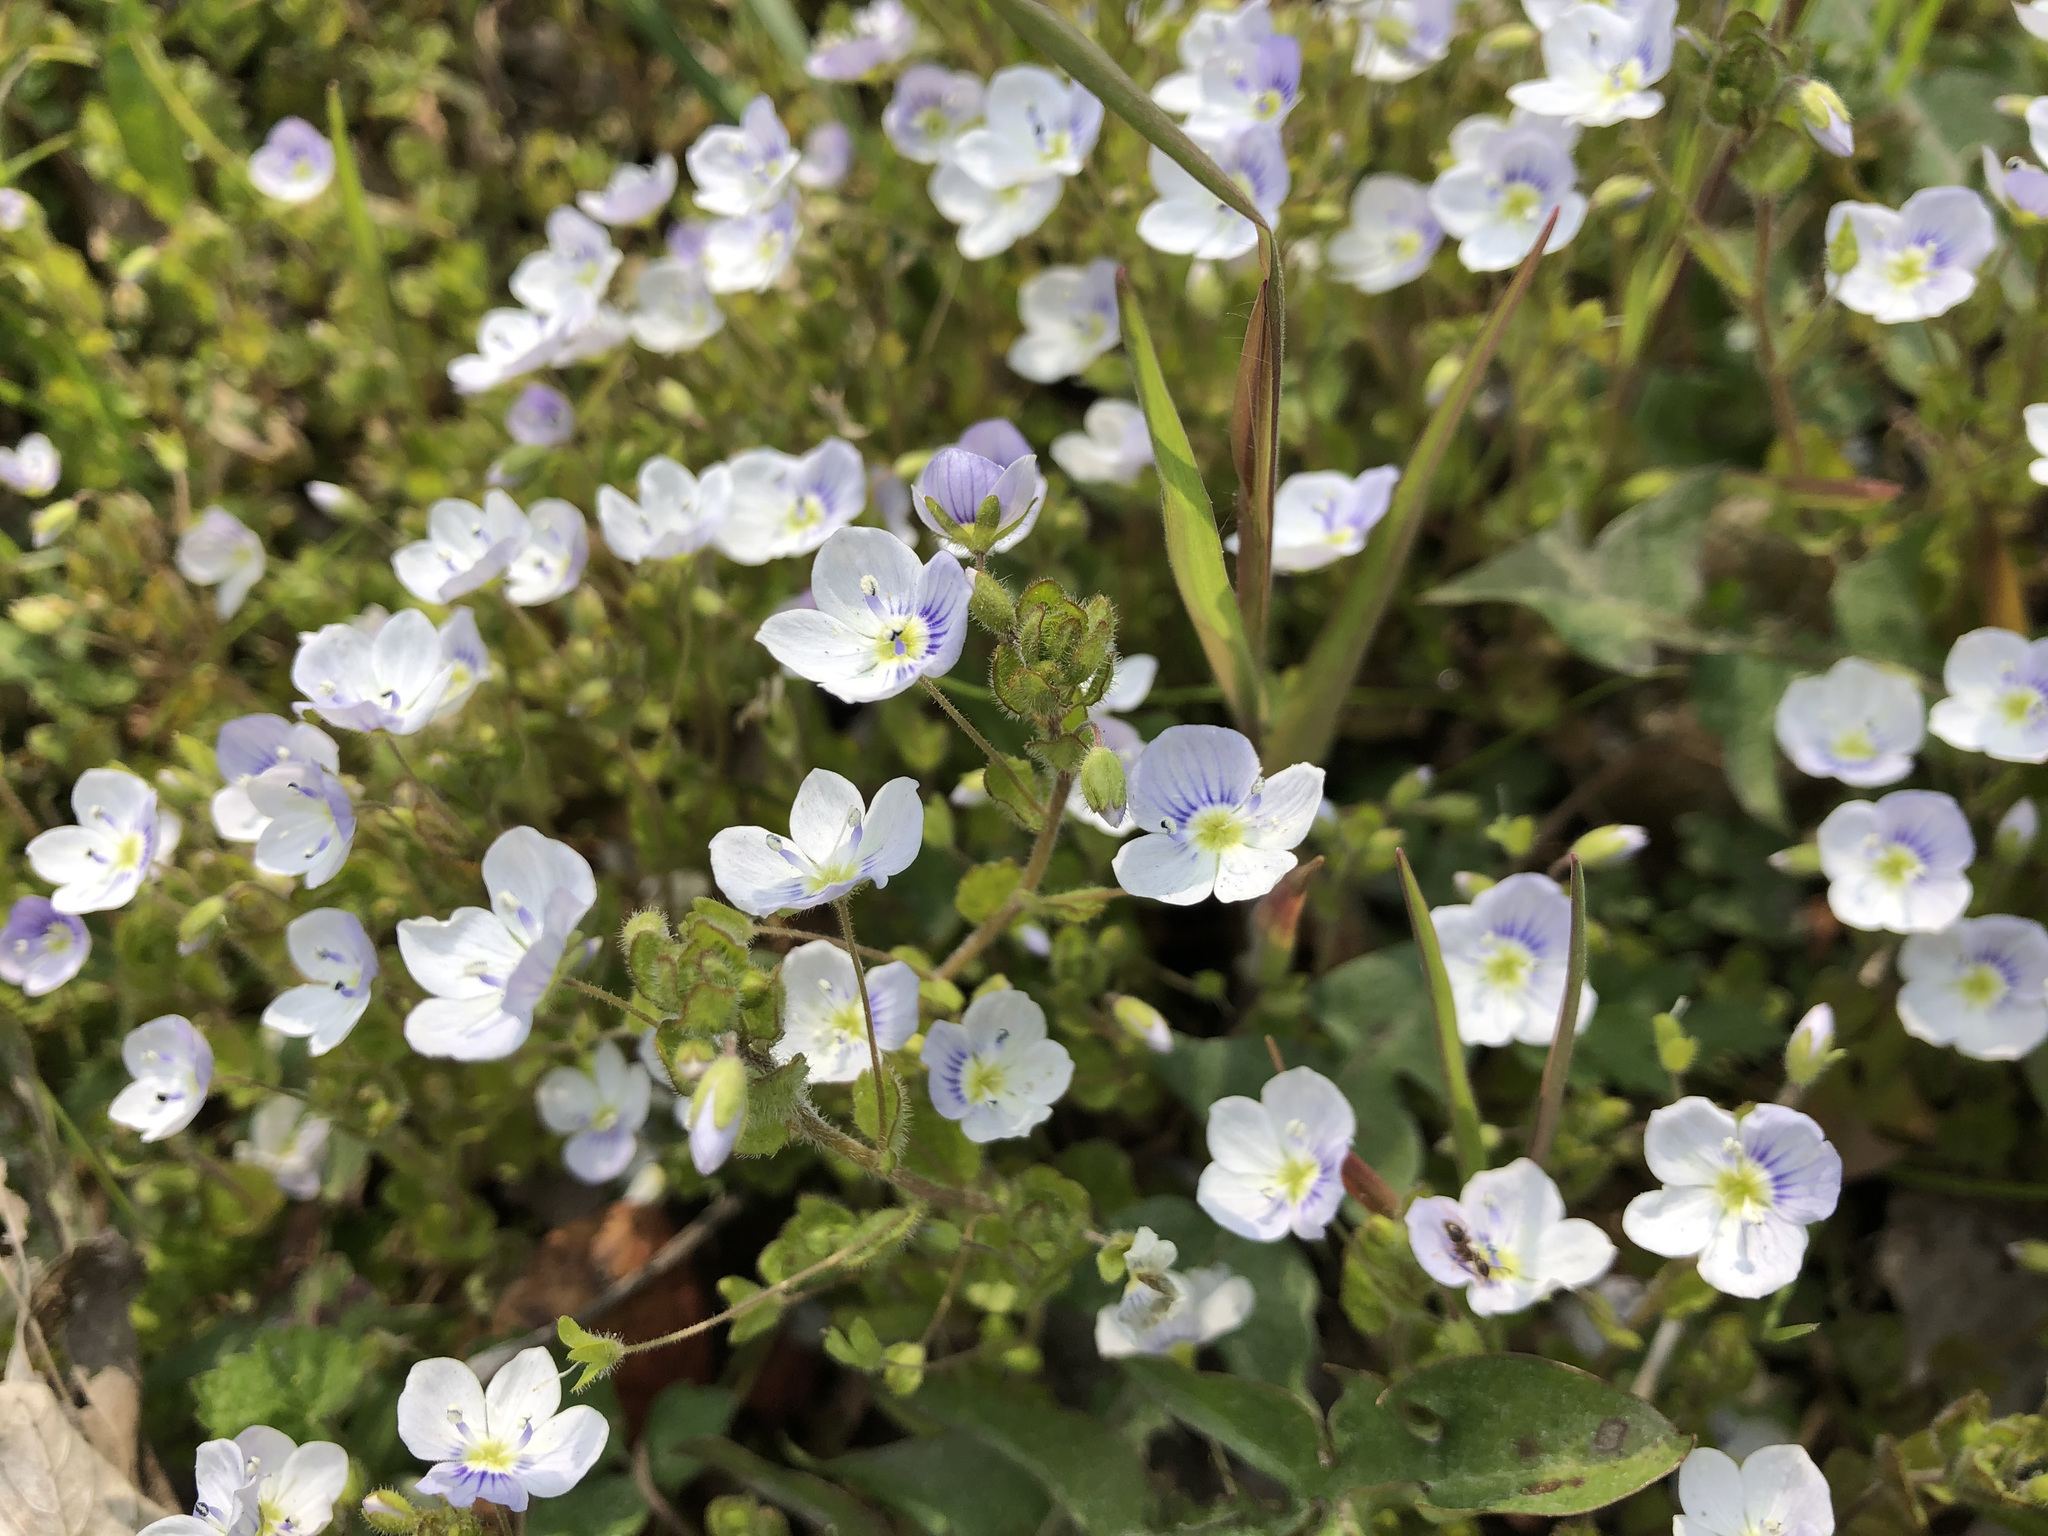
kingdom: Plantae
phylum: Tracheophyta
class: Magnoliopsida
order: Lamiales
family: Plantaginaceae
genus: Veronica
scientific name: Veronica filiformis
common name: Slender speedwell
